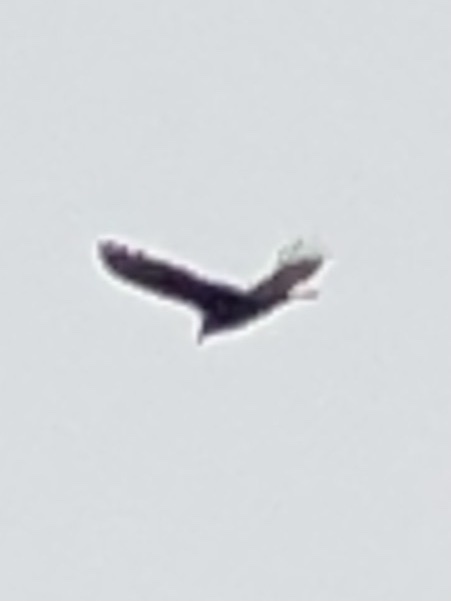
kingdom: Animalia
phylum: Chordata
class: Aves
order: Accipitriformes
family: Cathartidae
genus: Cathartes
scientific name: Cathartes aura
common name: Turkey vulture
